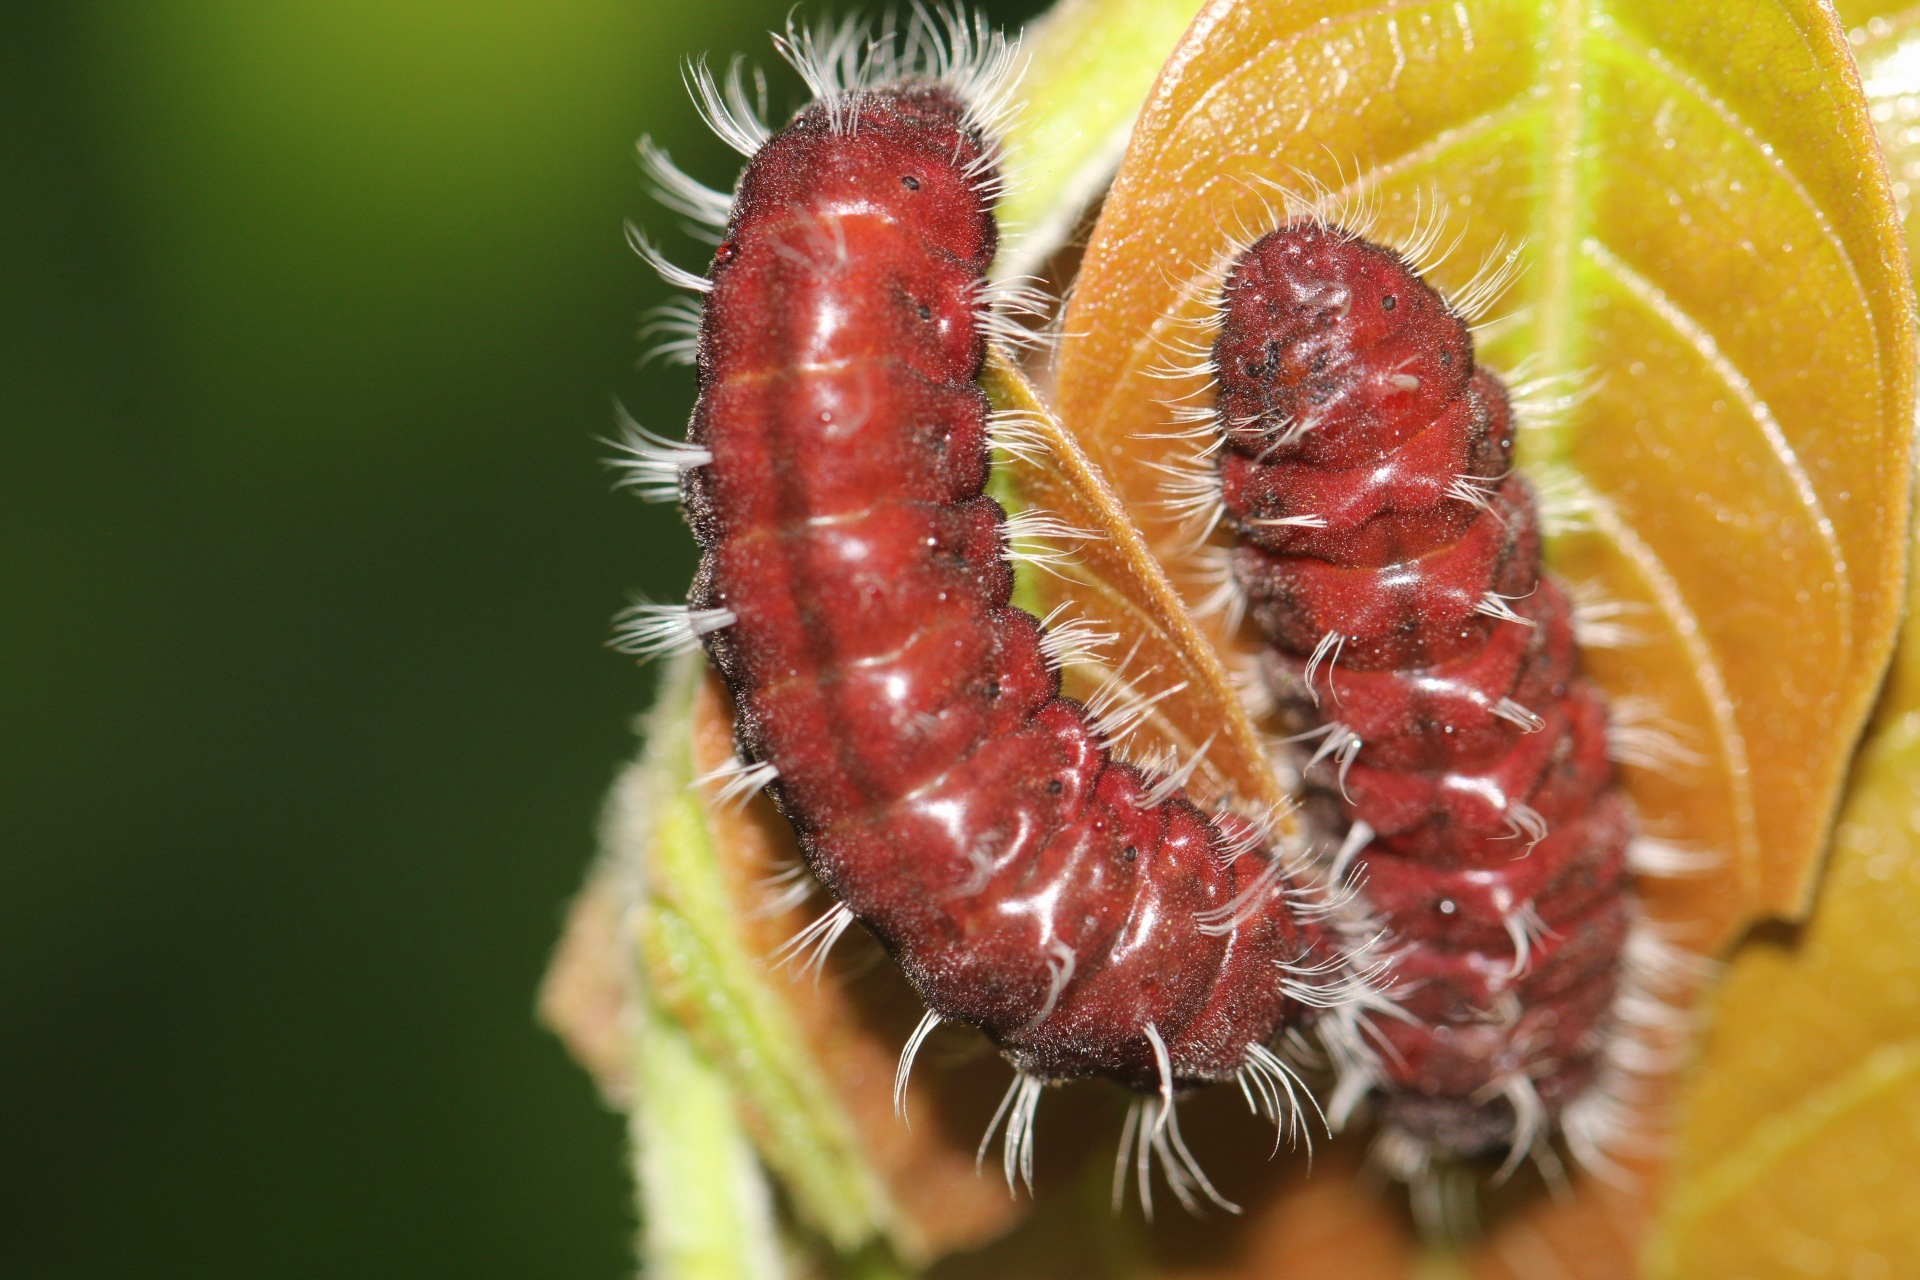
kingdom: Animalia
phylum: Arthropoda
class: Insecta
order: Lepidoptera
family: Lycaenidae
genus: Denivia
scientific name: Denivia
